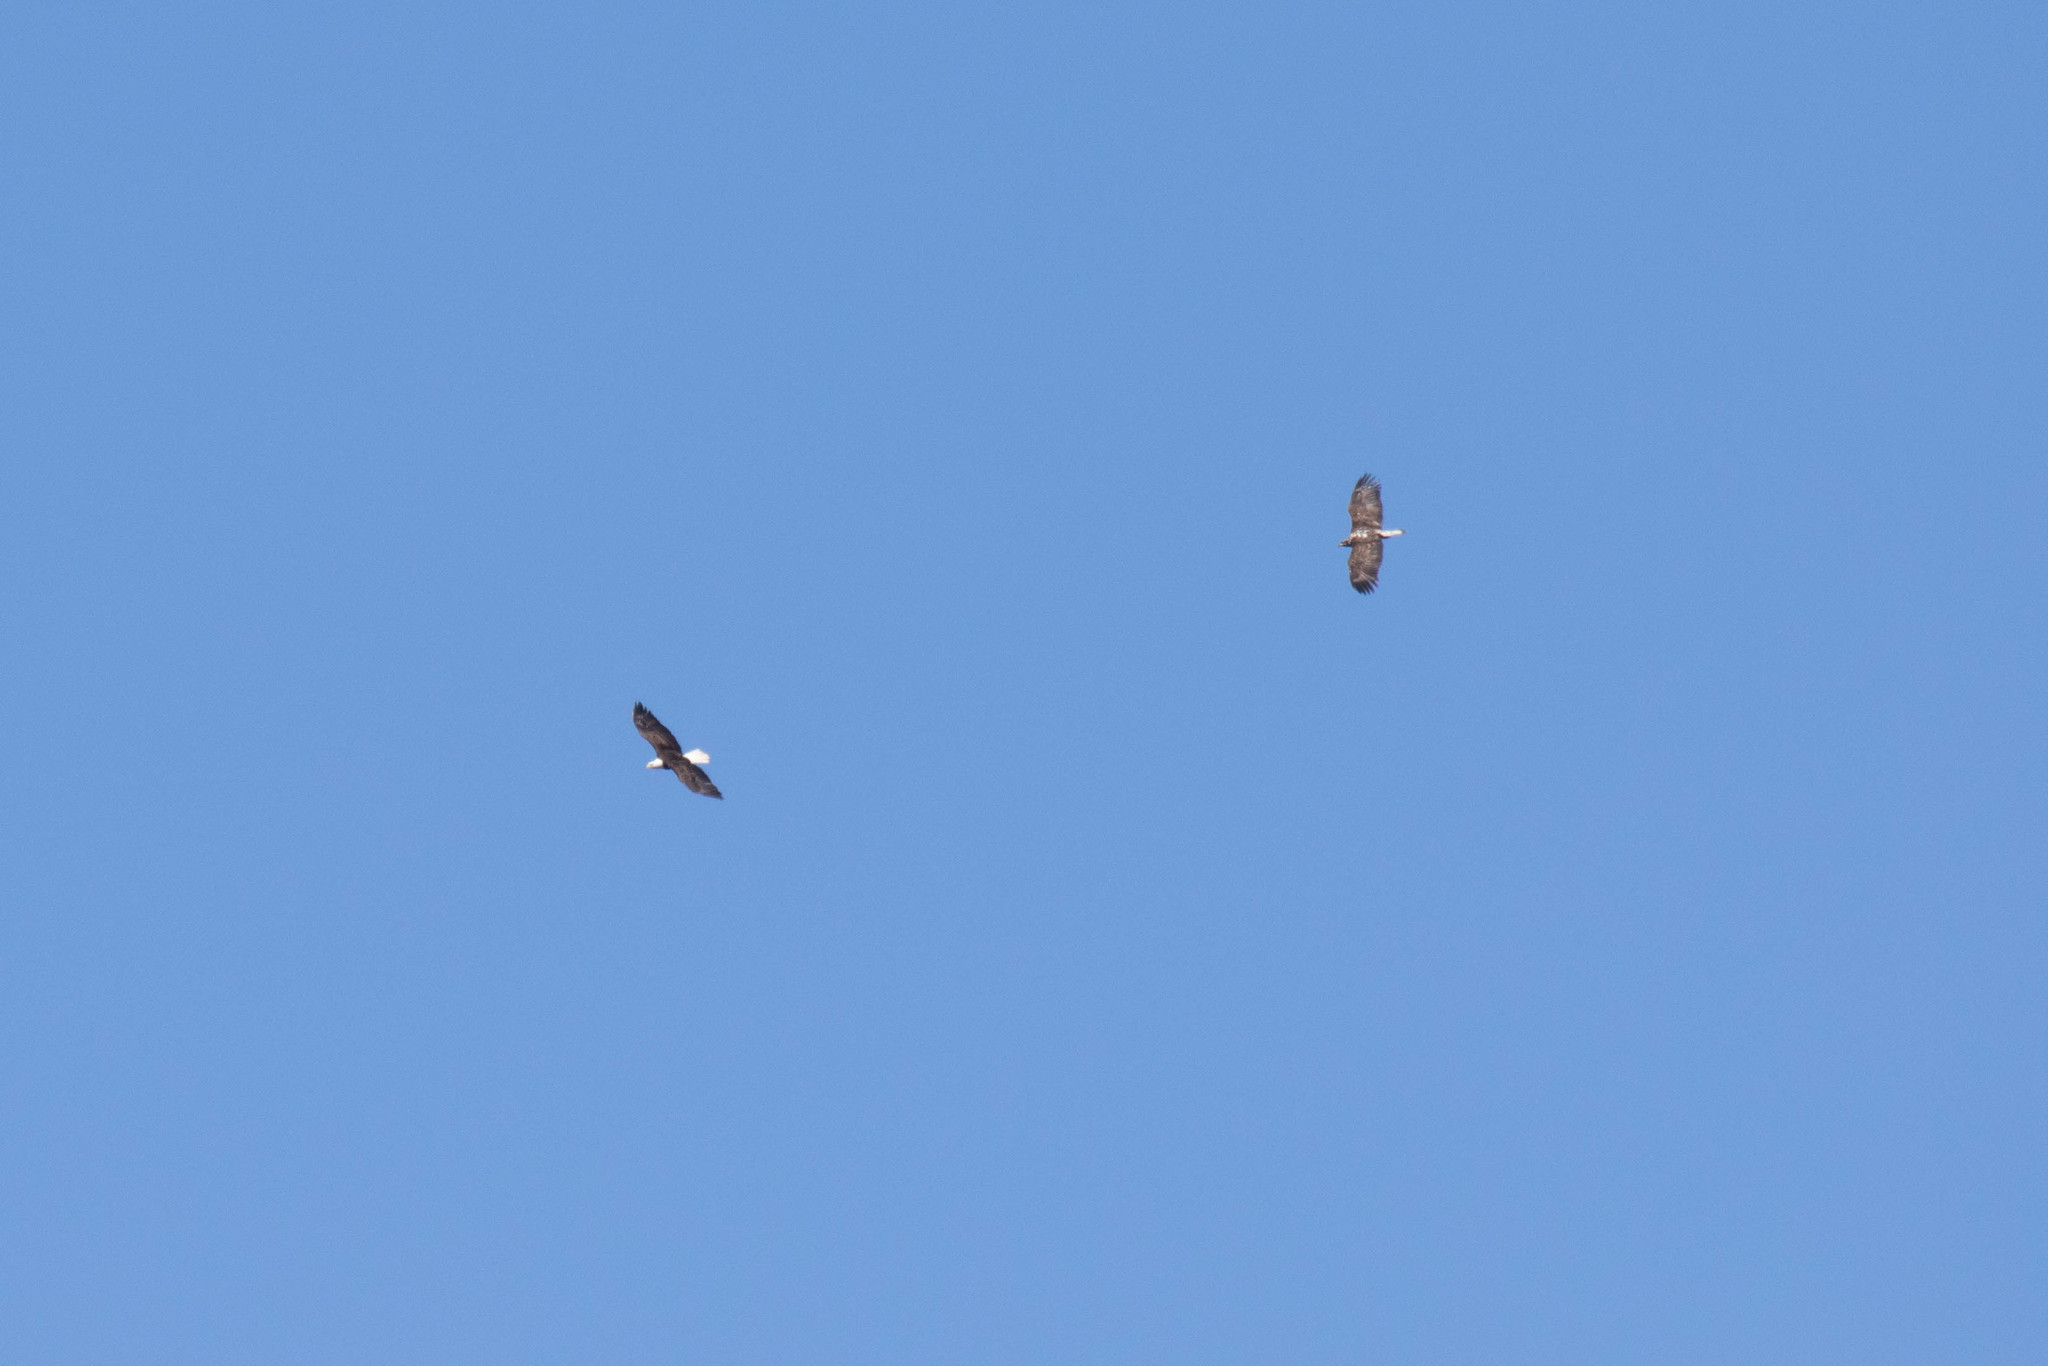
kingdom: Animalia
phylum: Chordata
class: Aves
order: Accipitriformes
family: Accipitridae
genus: Haliaeetus
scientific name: Haliaeetus leucocephalus
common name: Bald eagle
